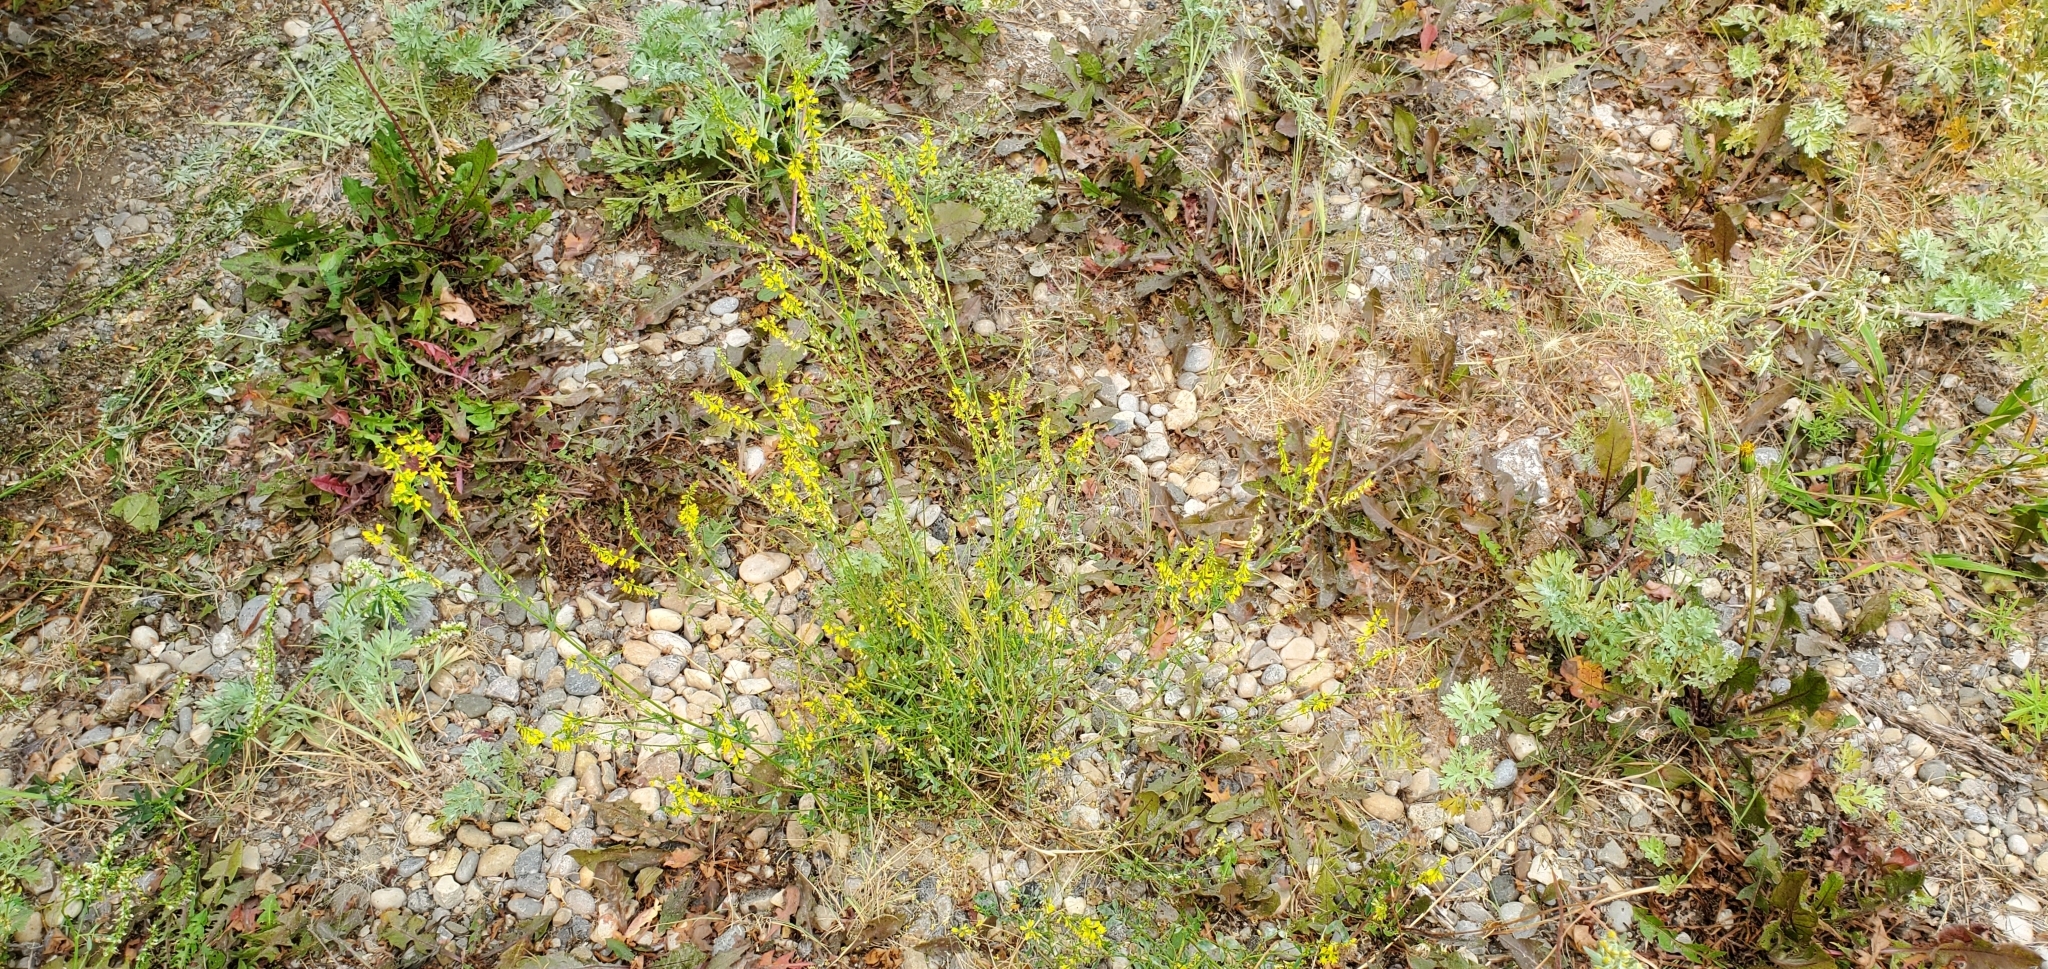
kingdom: Plantae
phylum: Tracheophyta
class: Magnoliopsida
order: Fabales
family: Fabaceae
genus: Melilotus
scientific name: Melilotus officinalis
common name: Sweetclover
